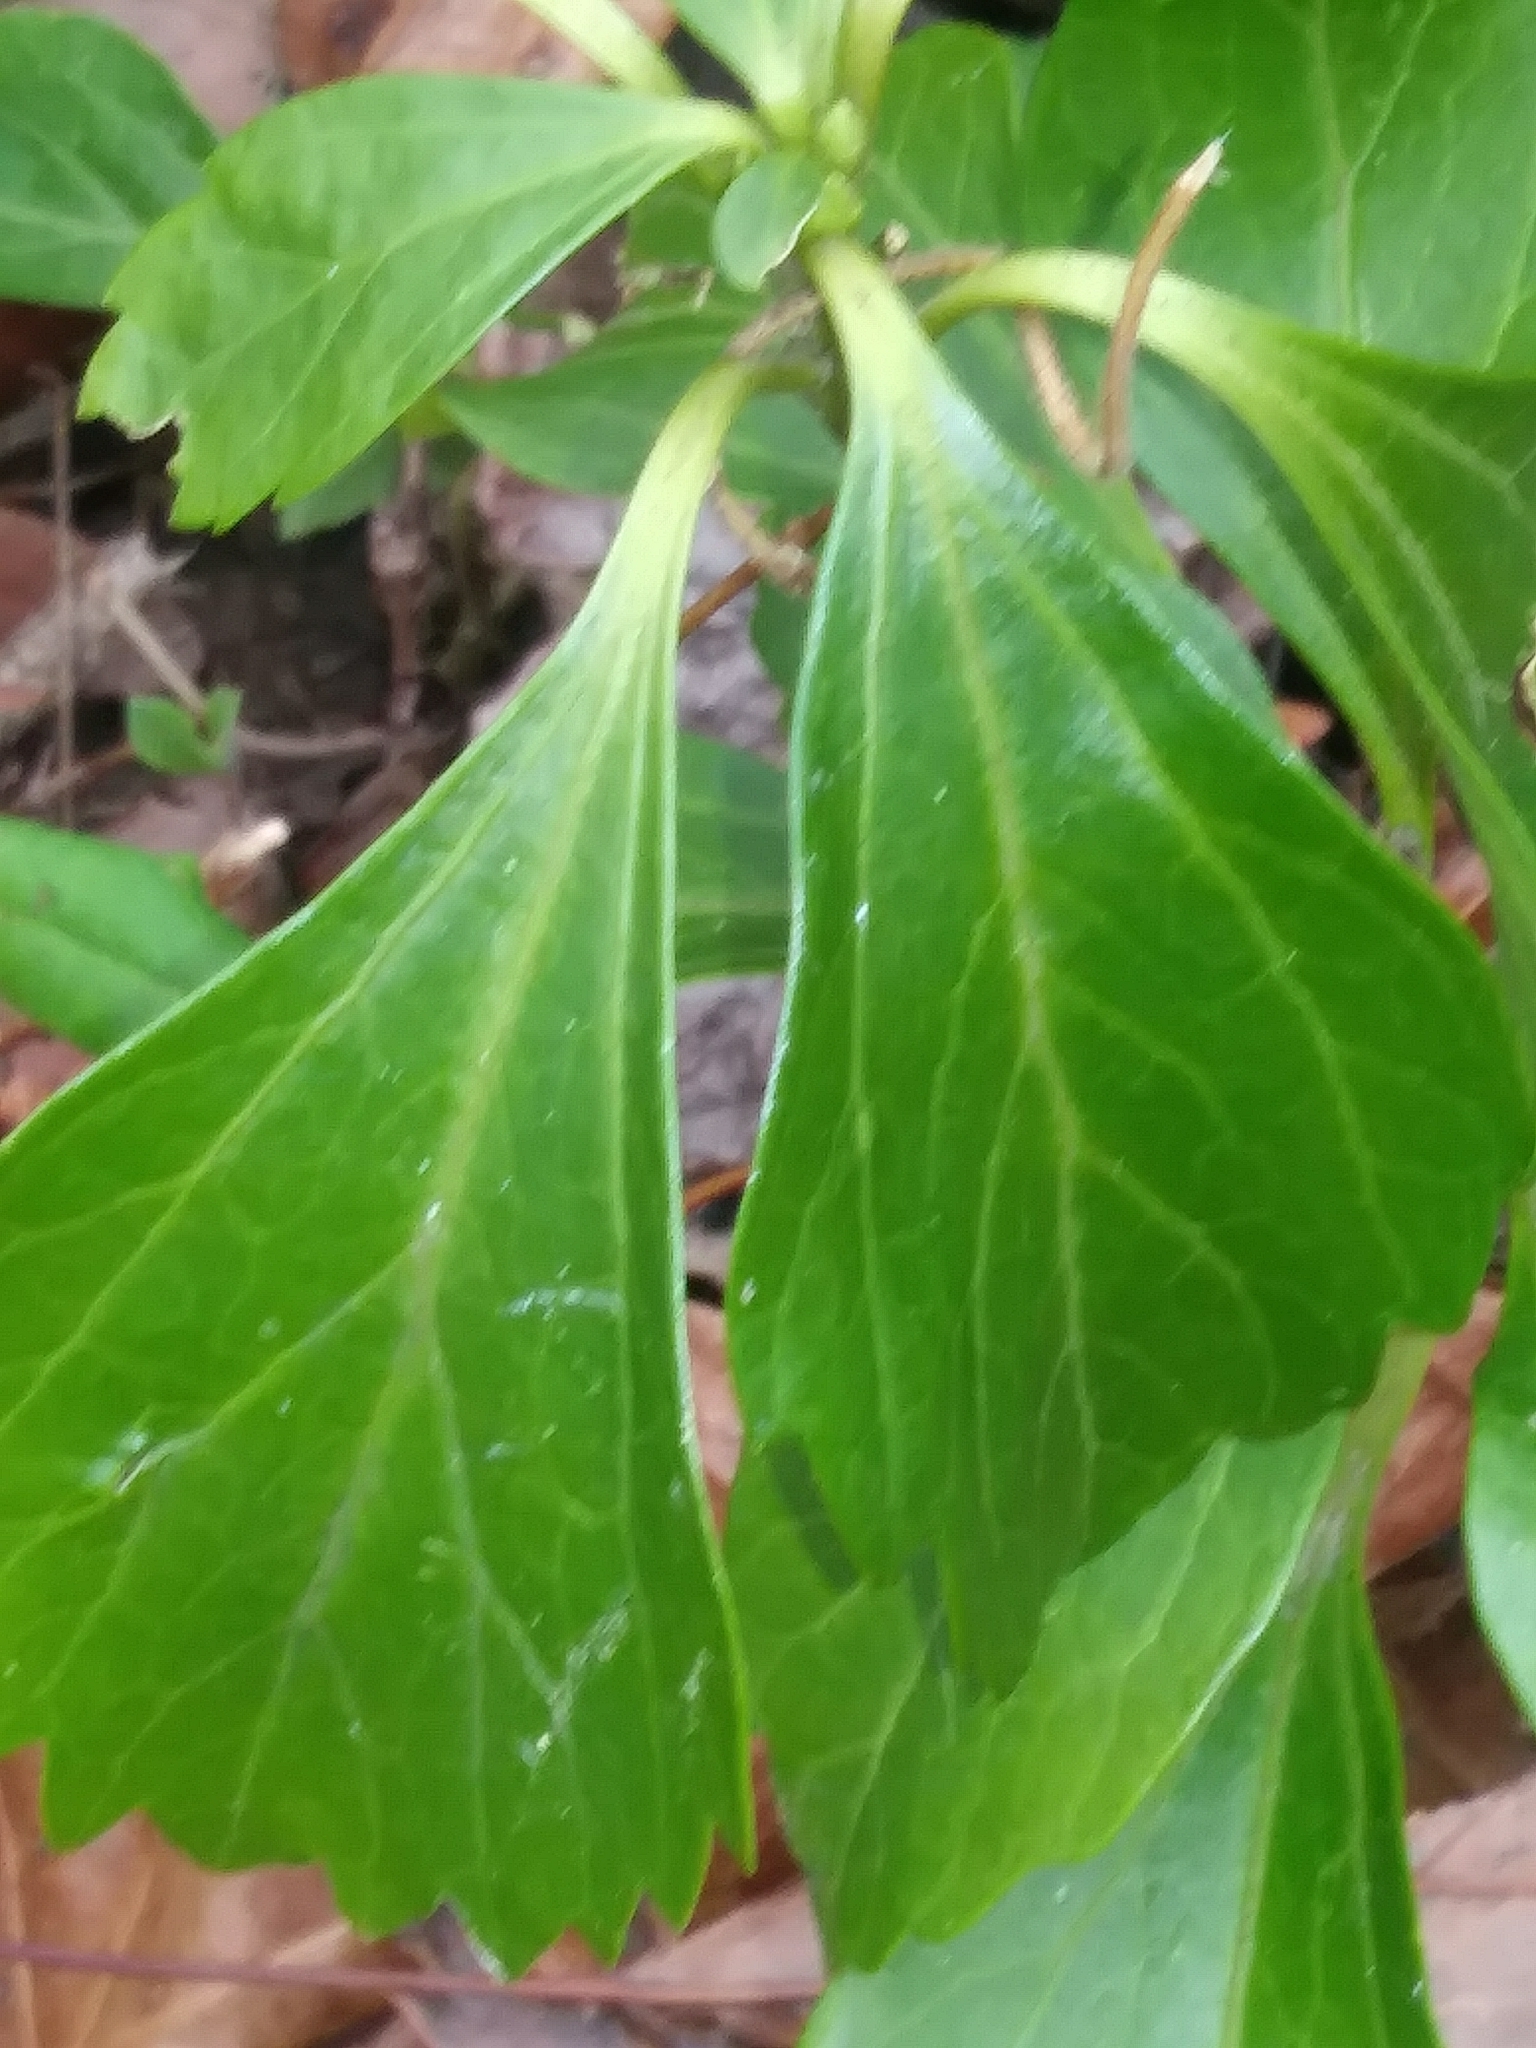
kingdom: Plantae
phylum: Tracheophyta
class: Magnoliopsida
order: Buxales
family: Buxaceae
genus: Pachysandra
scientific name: Pachysandra terminalis
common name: Japanese pachysandra
